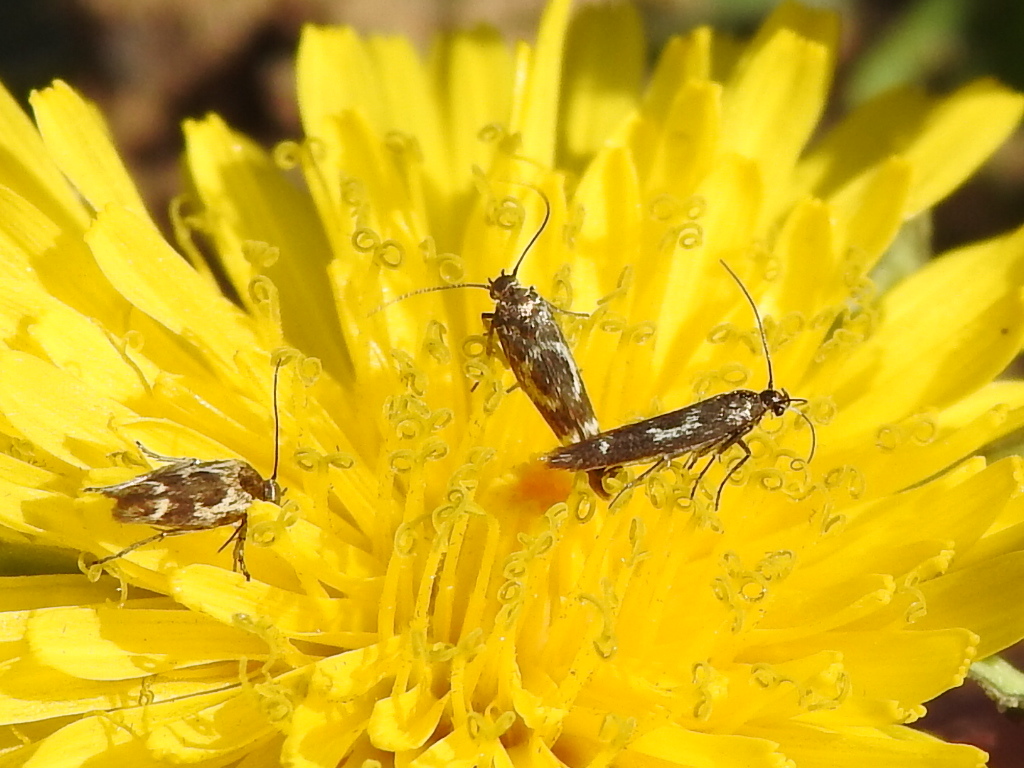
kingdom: Animalia
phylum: Arthropoda
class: Insecta
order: Lepidoptera
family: Scythrididae
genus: Scythris
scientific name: Scythris trivinctella
